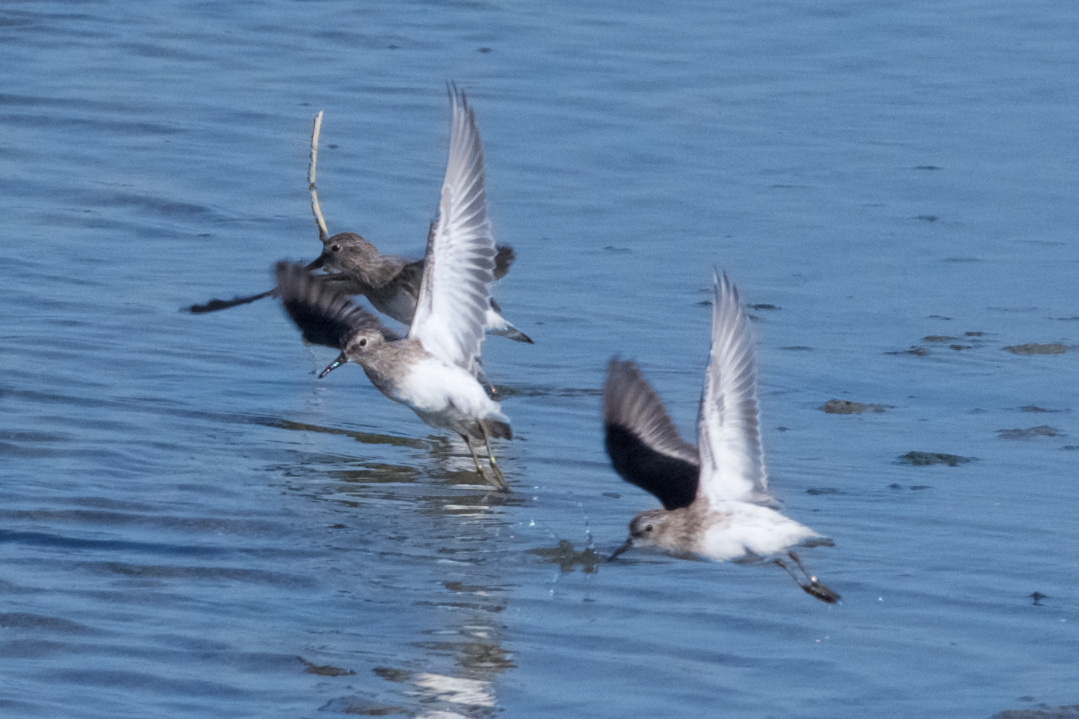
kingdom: Animalia
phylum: Chordata
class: Aves
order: Charadriiformes
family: Scolopacidae
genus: Calidris
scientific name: Calidris minutilla
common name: Least sandpiper
